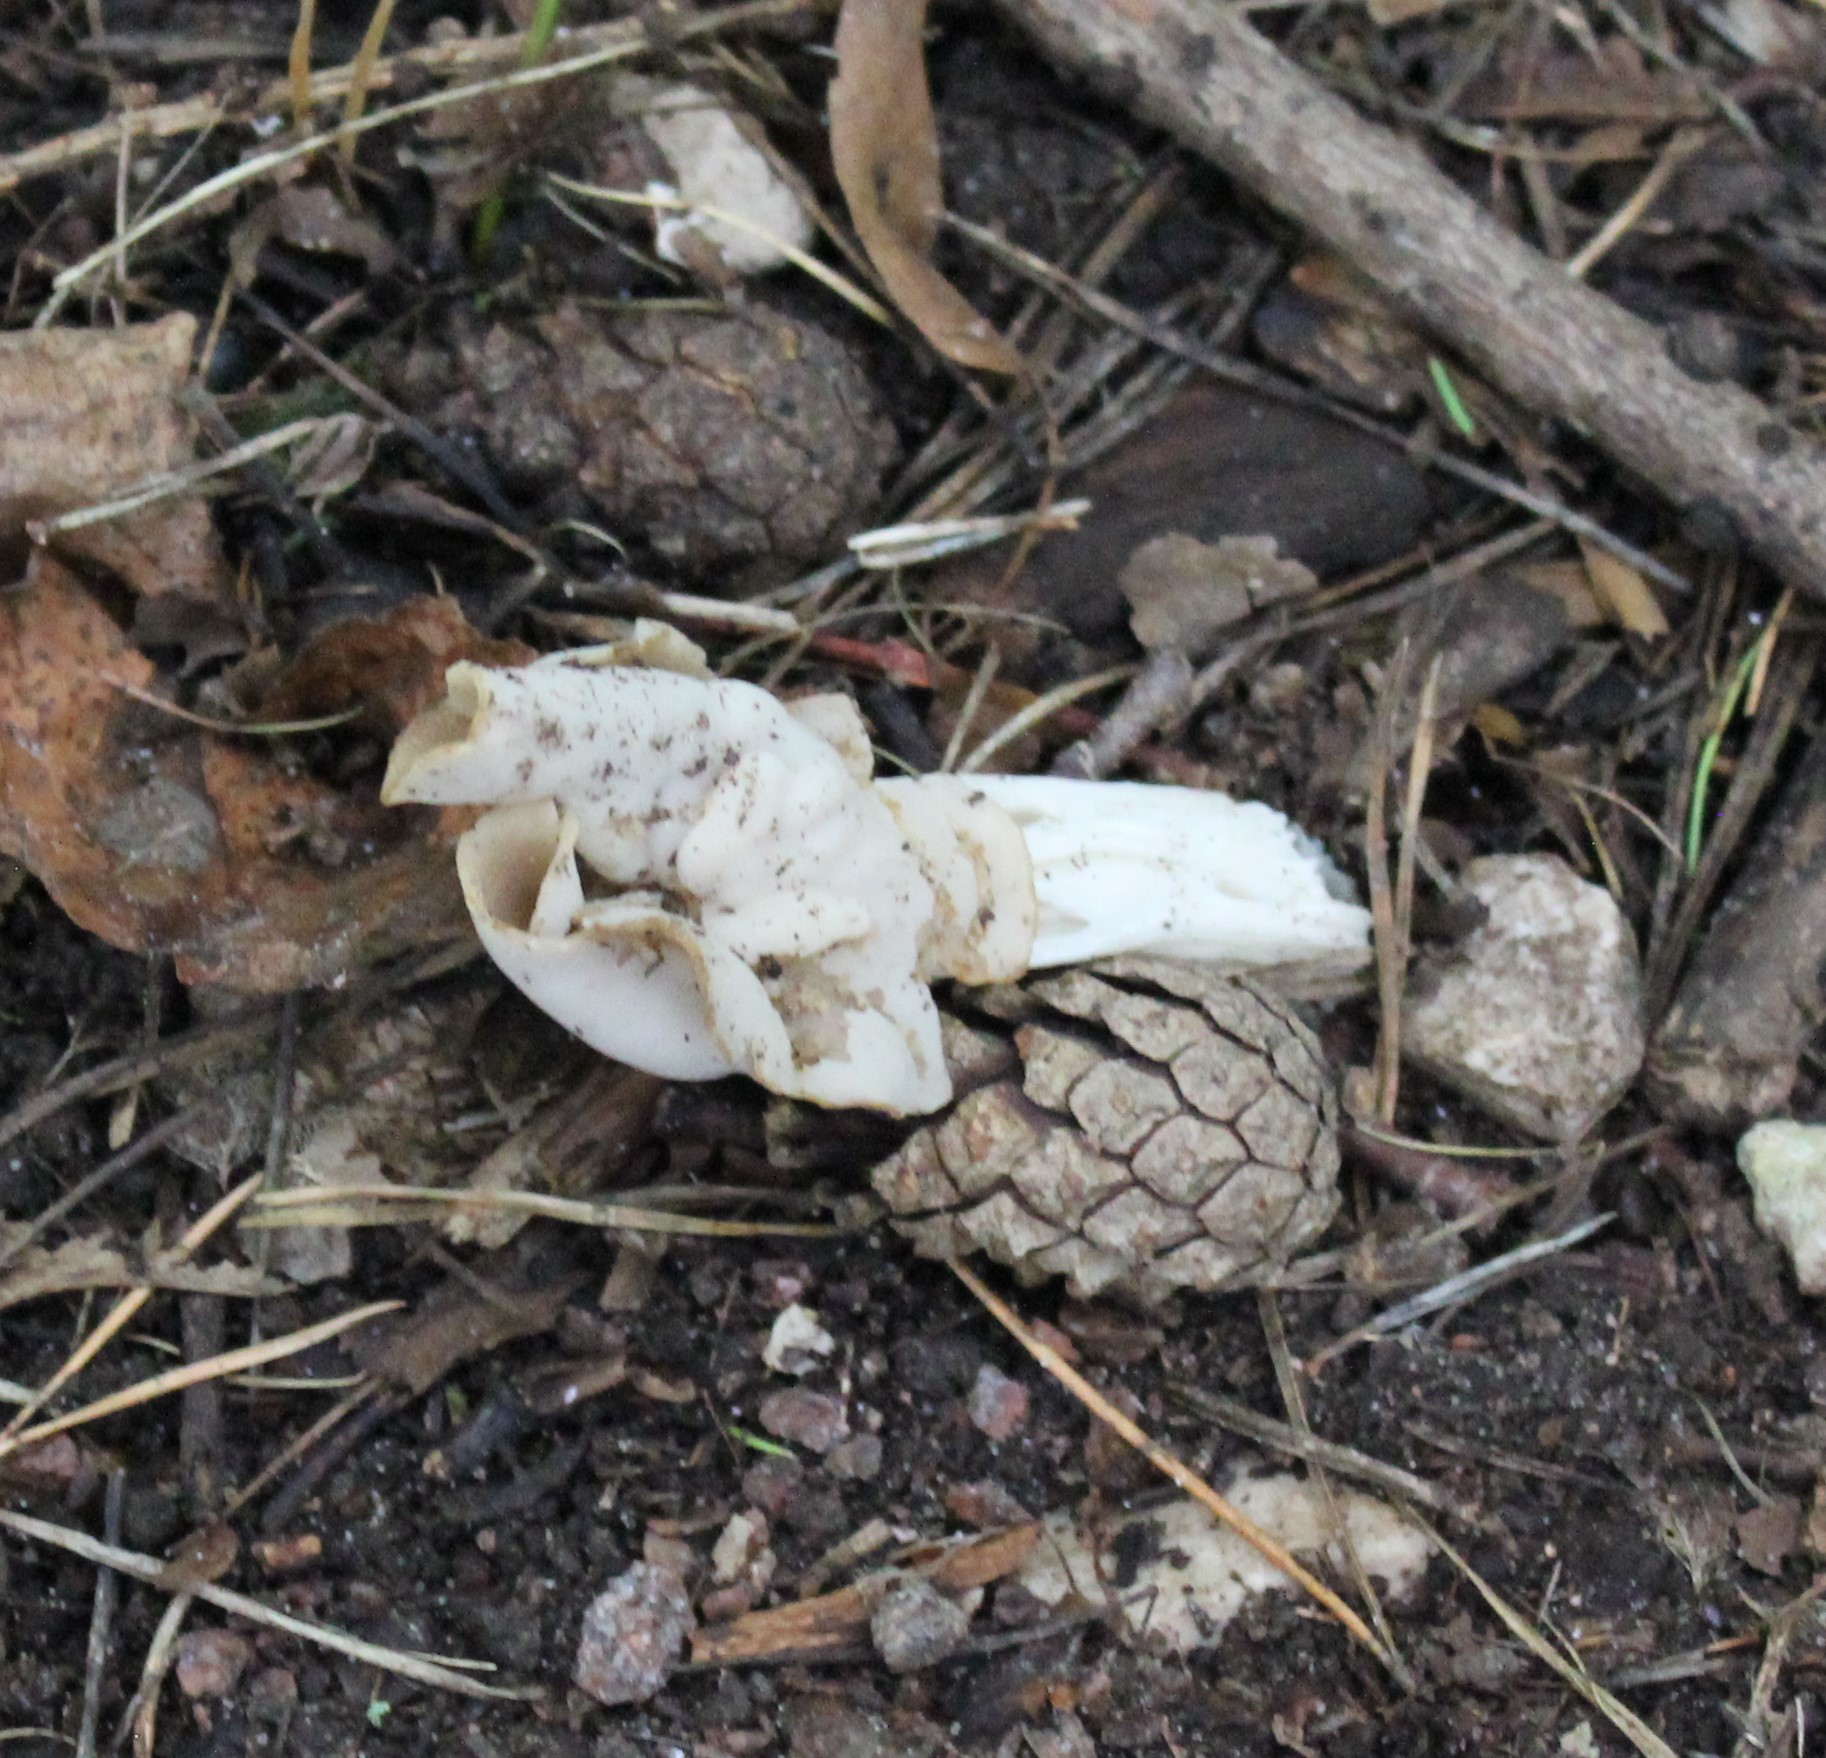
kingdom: Fungi
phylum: Ascomycota
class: Pezizomycetes
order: Pezizales
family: Helvellaceae
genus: Helvella
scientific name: Helvella crispa
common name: White saddle
